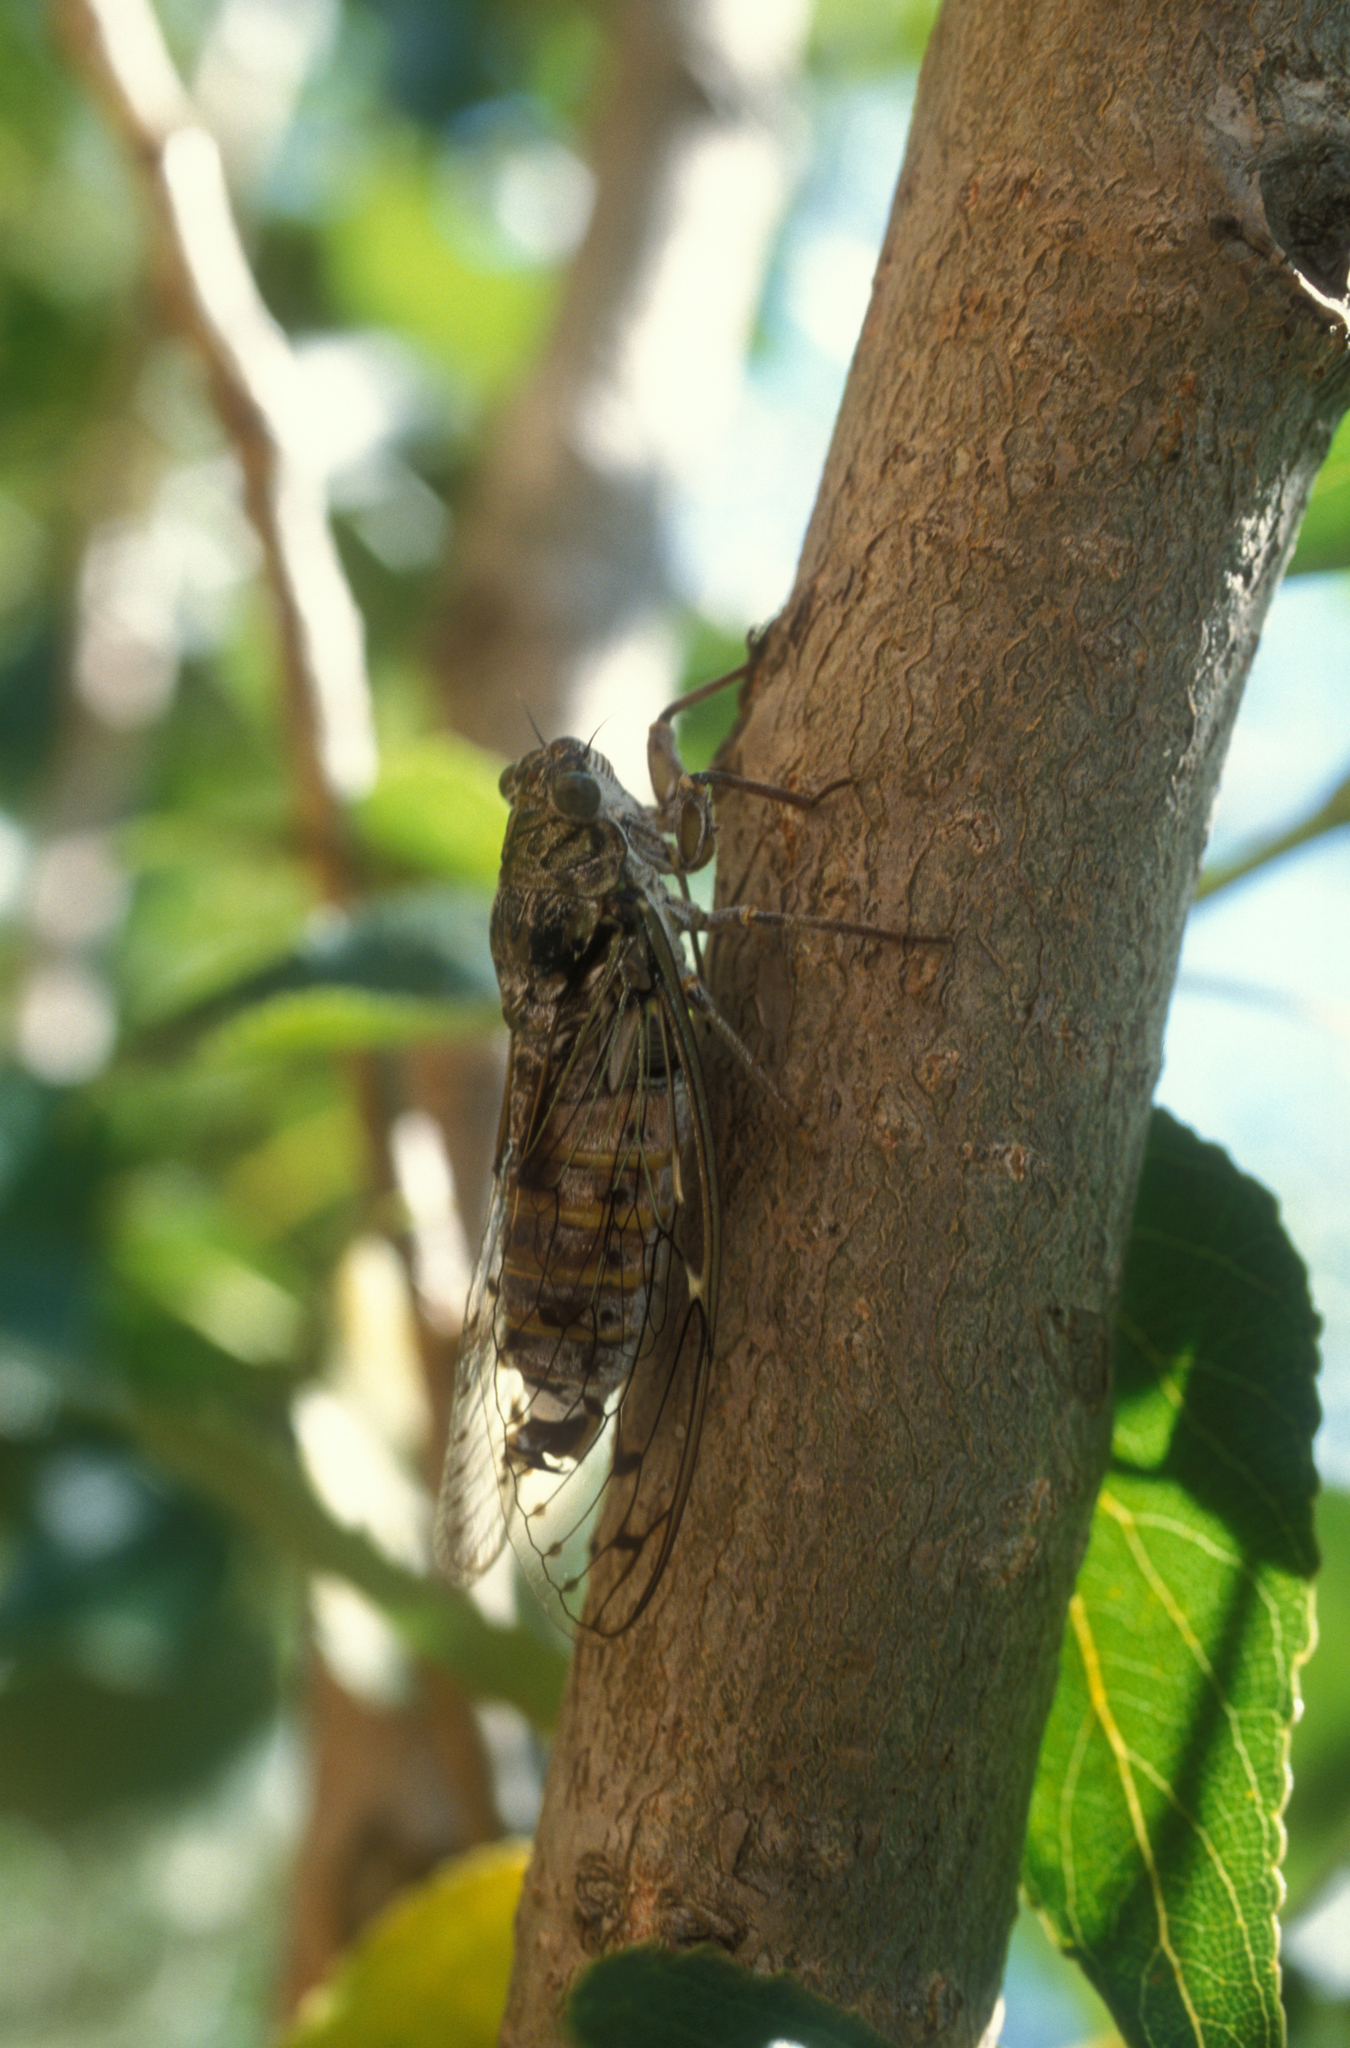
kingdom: Animalia
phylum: Arthropoda
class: Insecta
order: Hemiptera
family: Cicadidae
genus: Cicada
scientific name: Cicada orni
